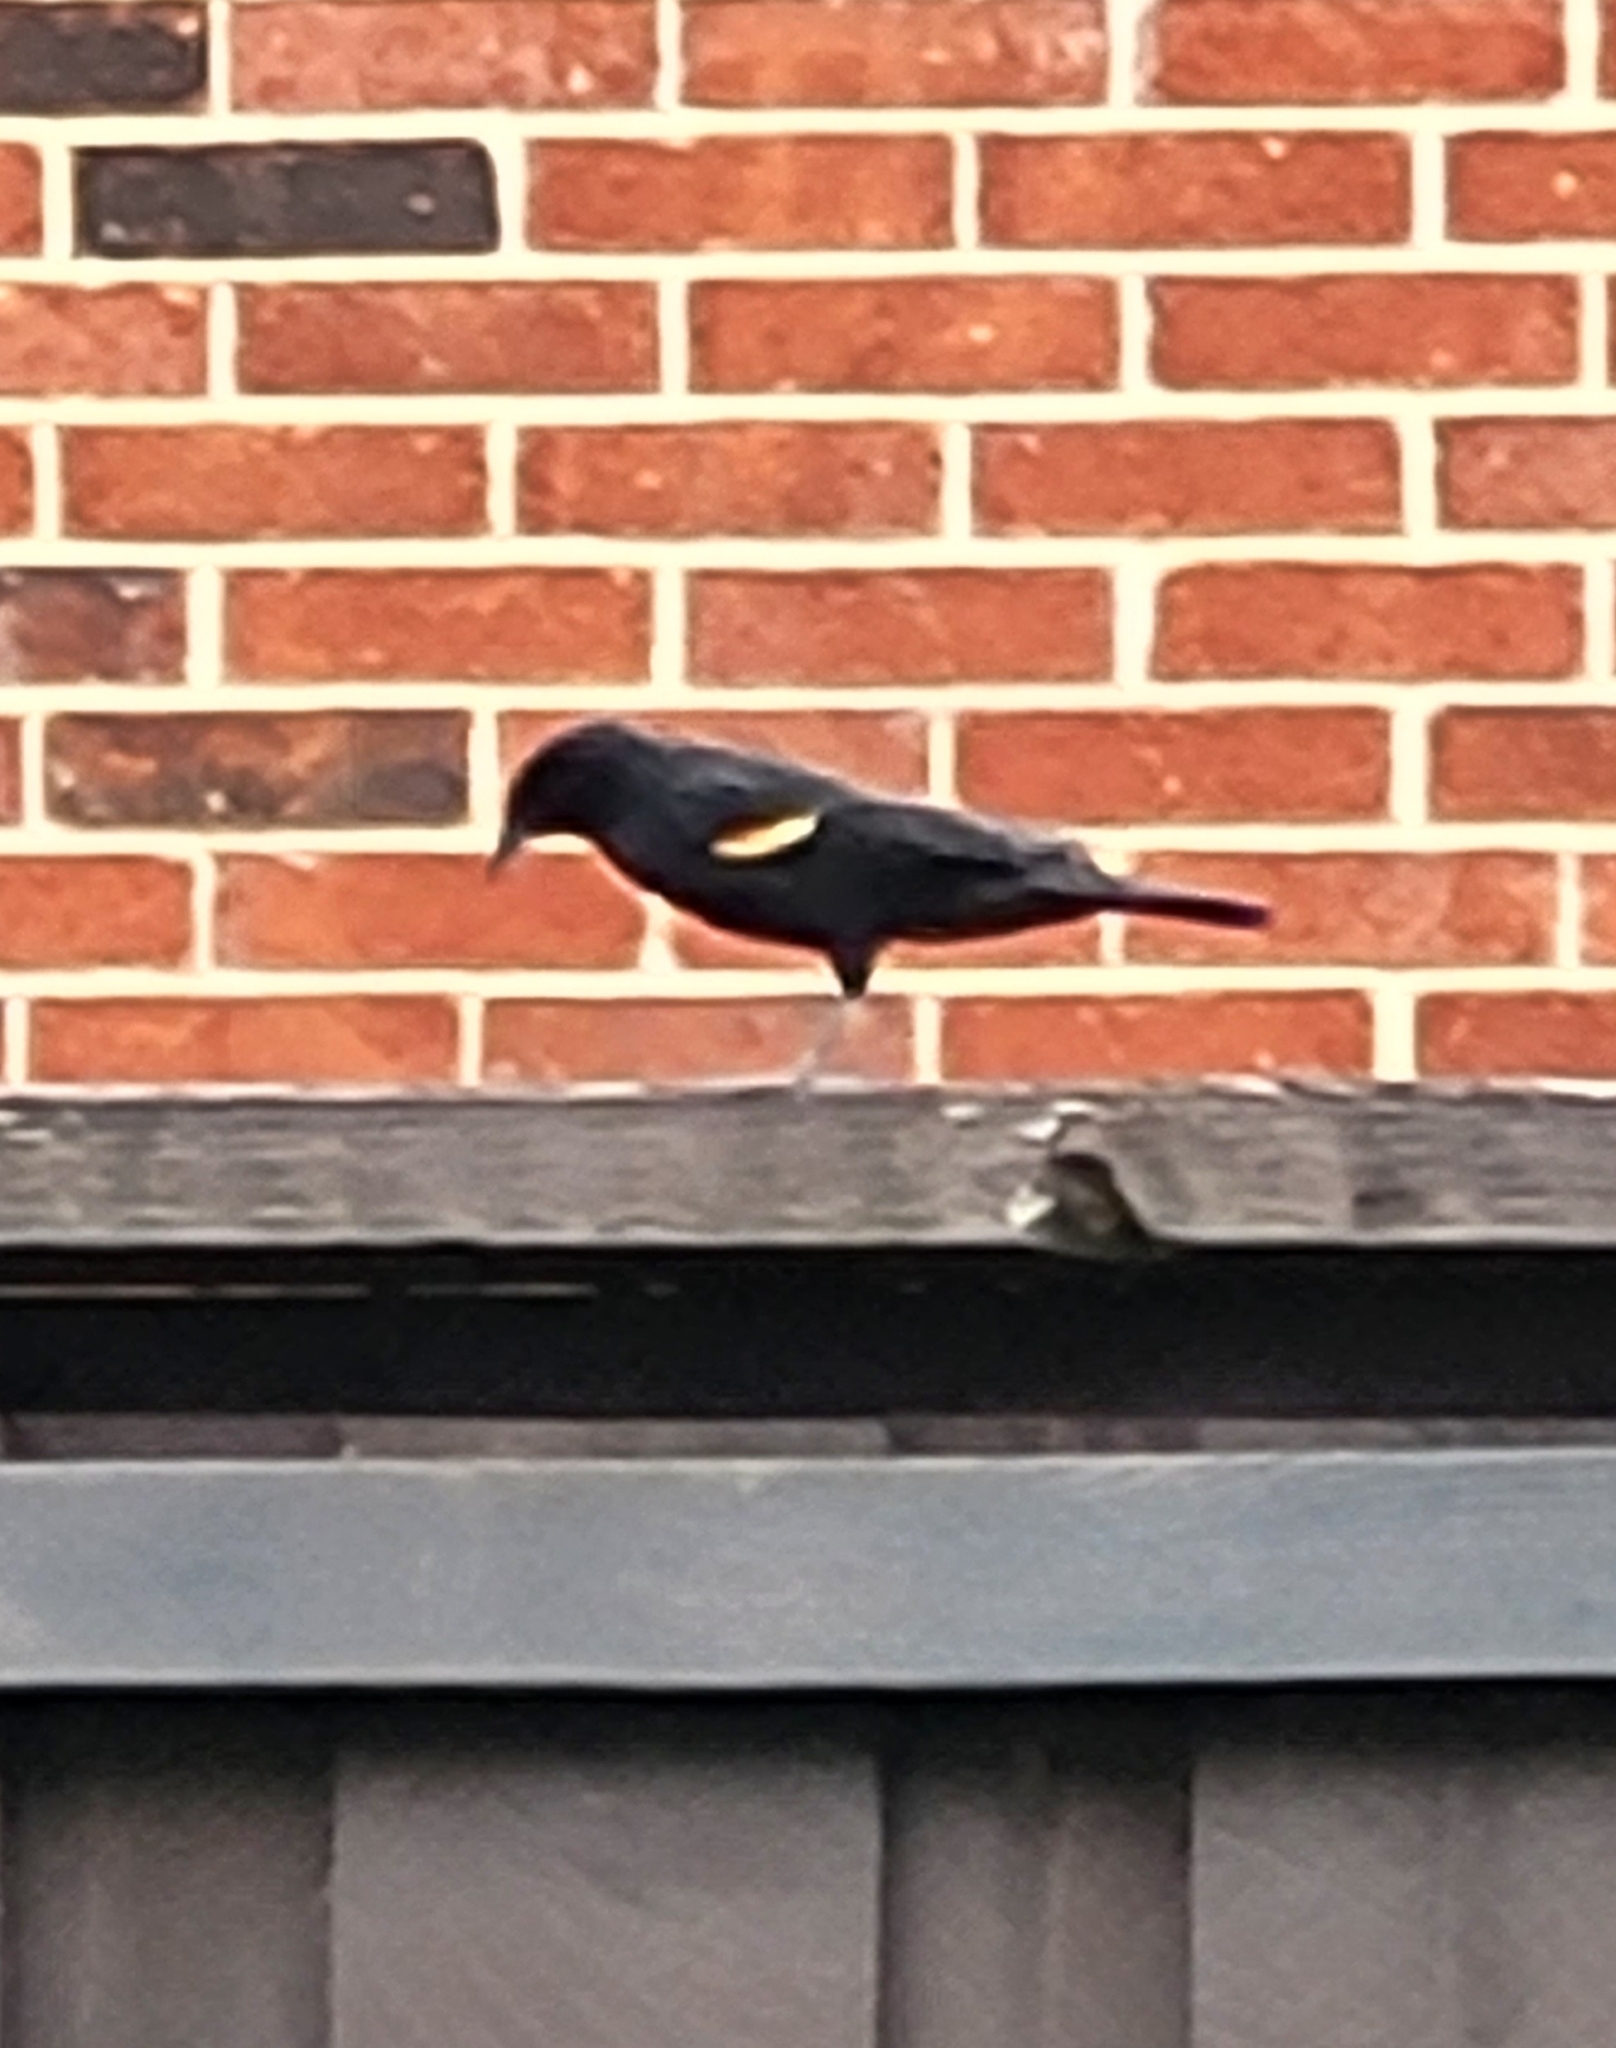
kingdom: Animalia
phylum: Chordata
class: Aves
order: Passeriformes
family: Icteridae
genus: Agelaius
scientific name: Agelaius phoeniceus
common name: Red-winged blackbird
